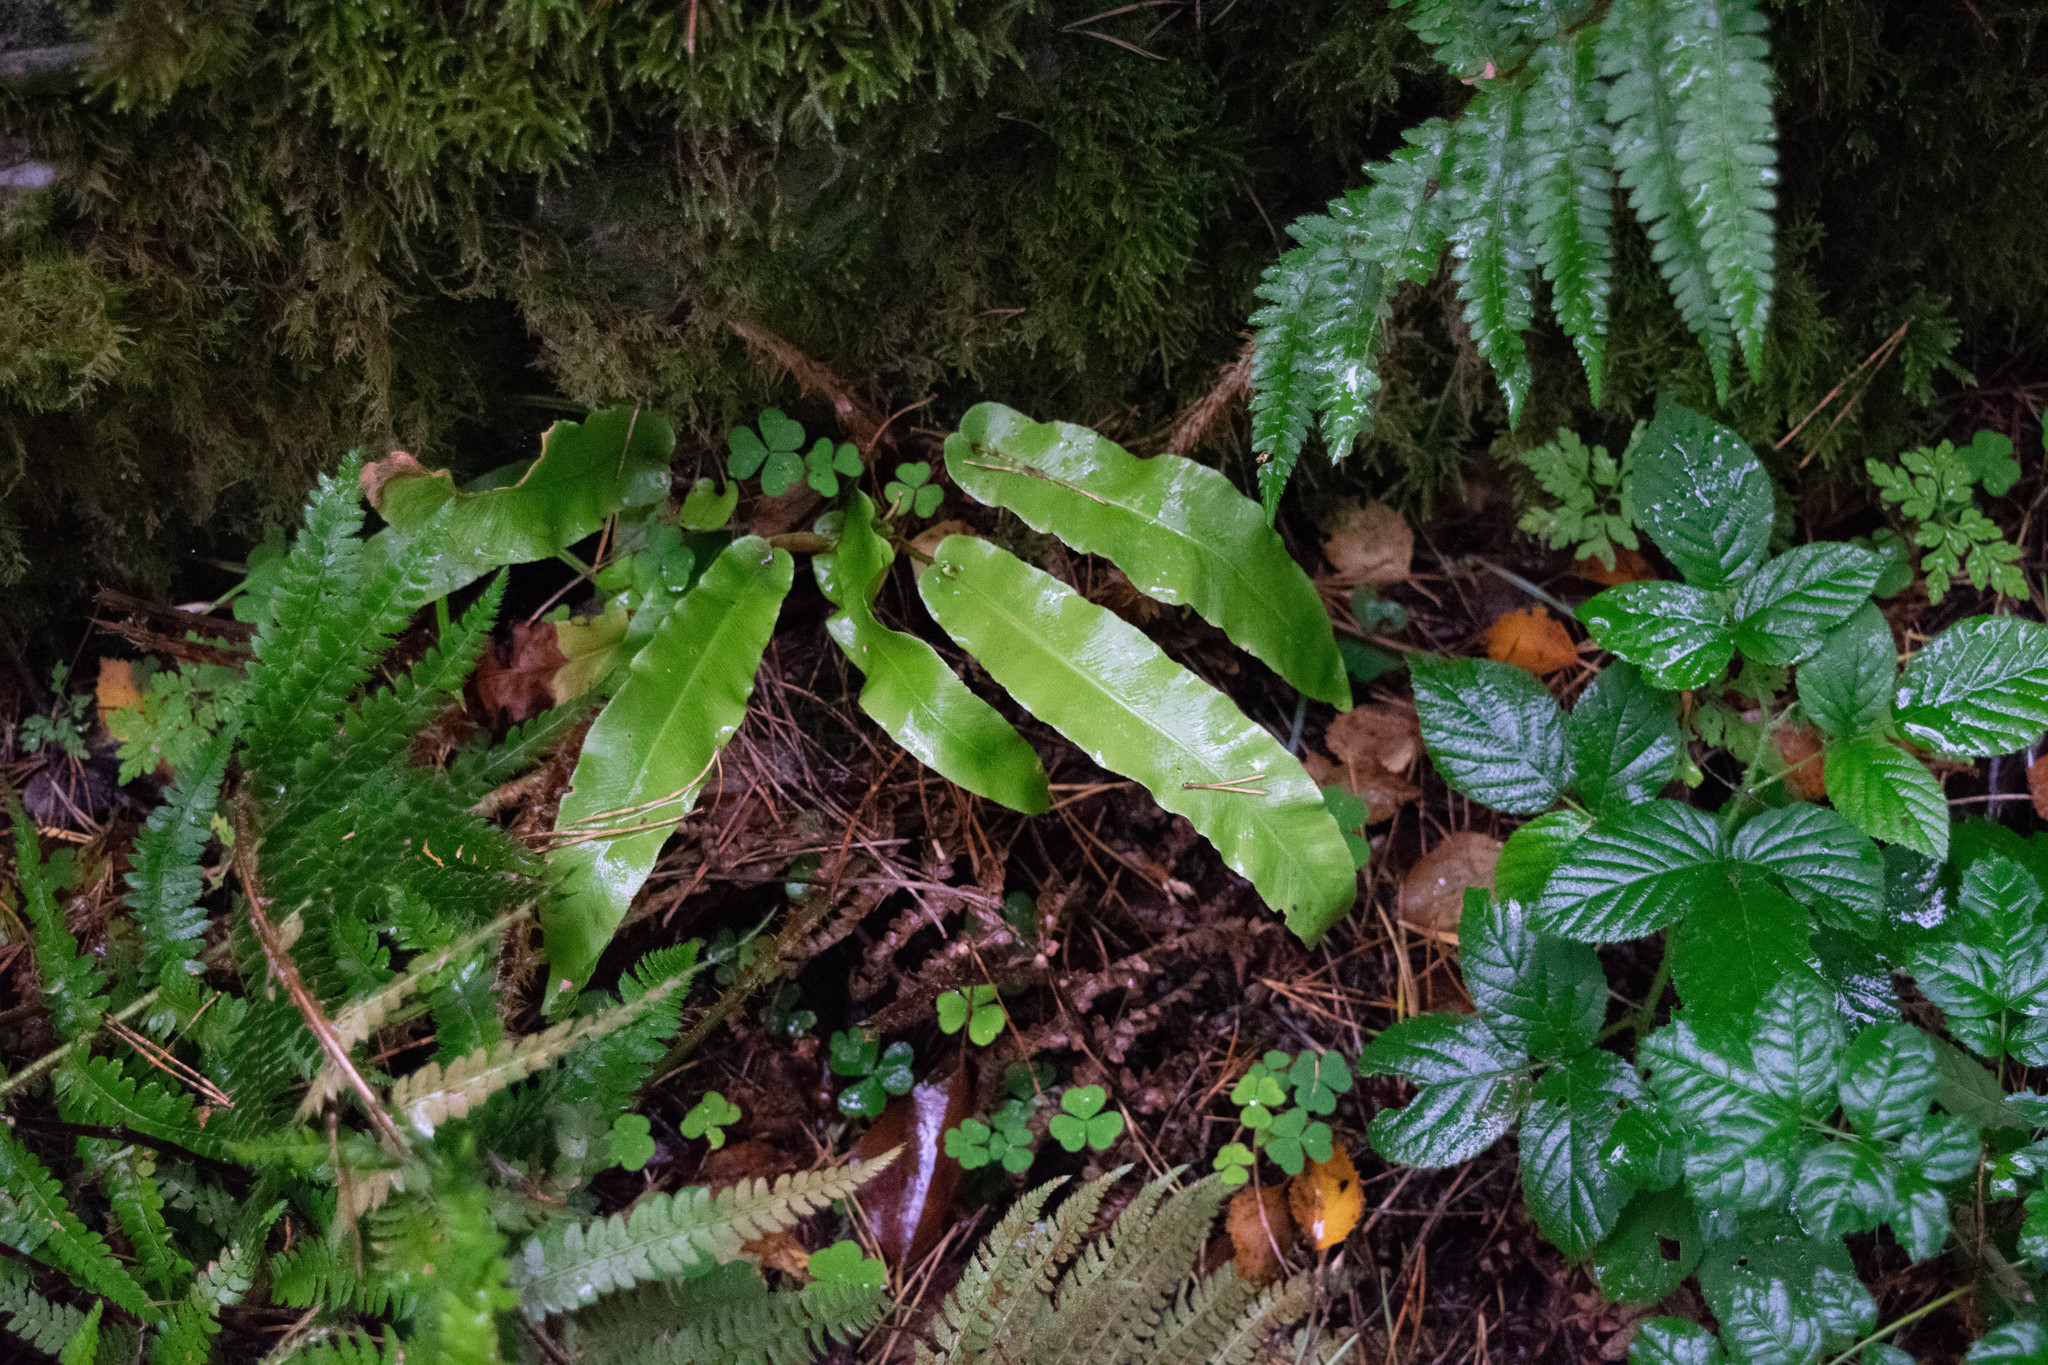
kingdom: Plantae
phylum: Tracheophyta
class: Polypodiopsida
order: Polypodiales
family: Aspleniaceae
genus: Asplenium
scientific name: Asplenium scolopendrium
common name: Hart's-tongue fern
